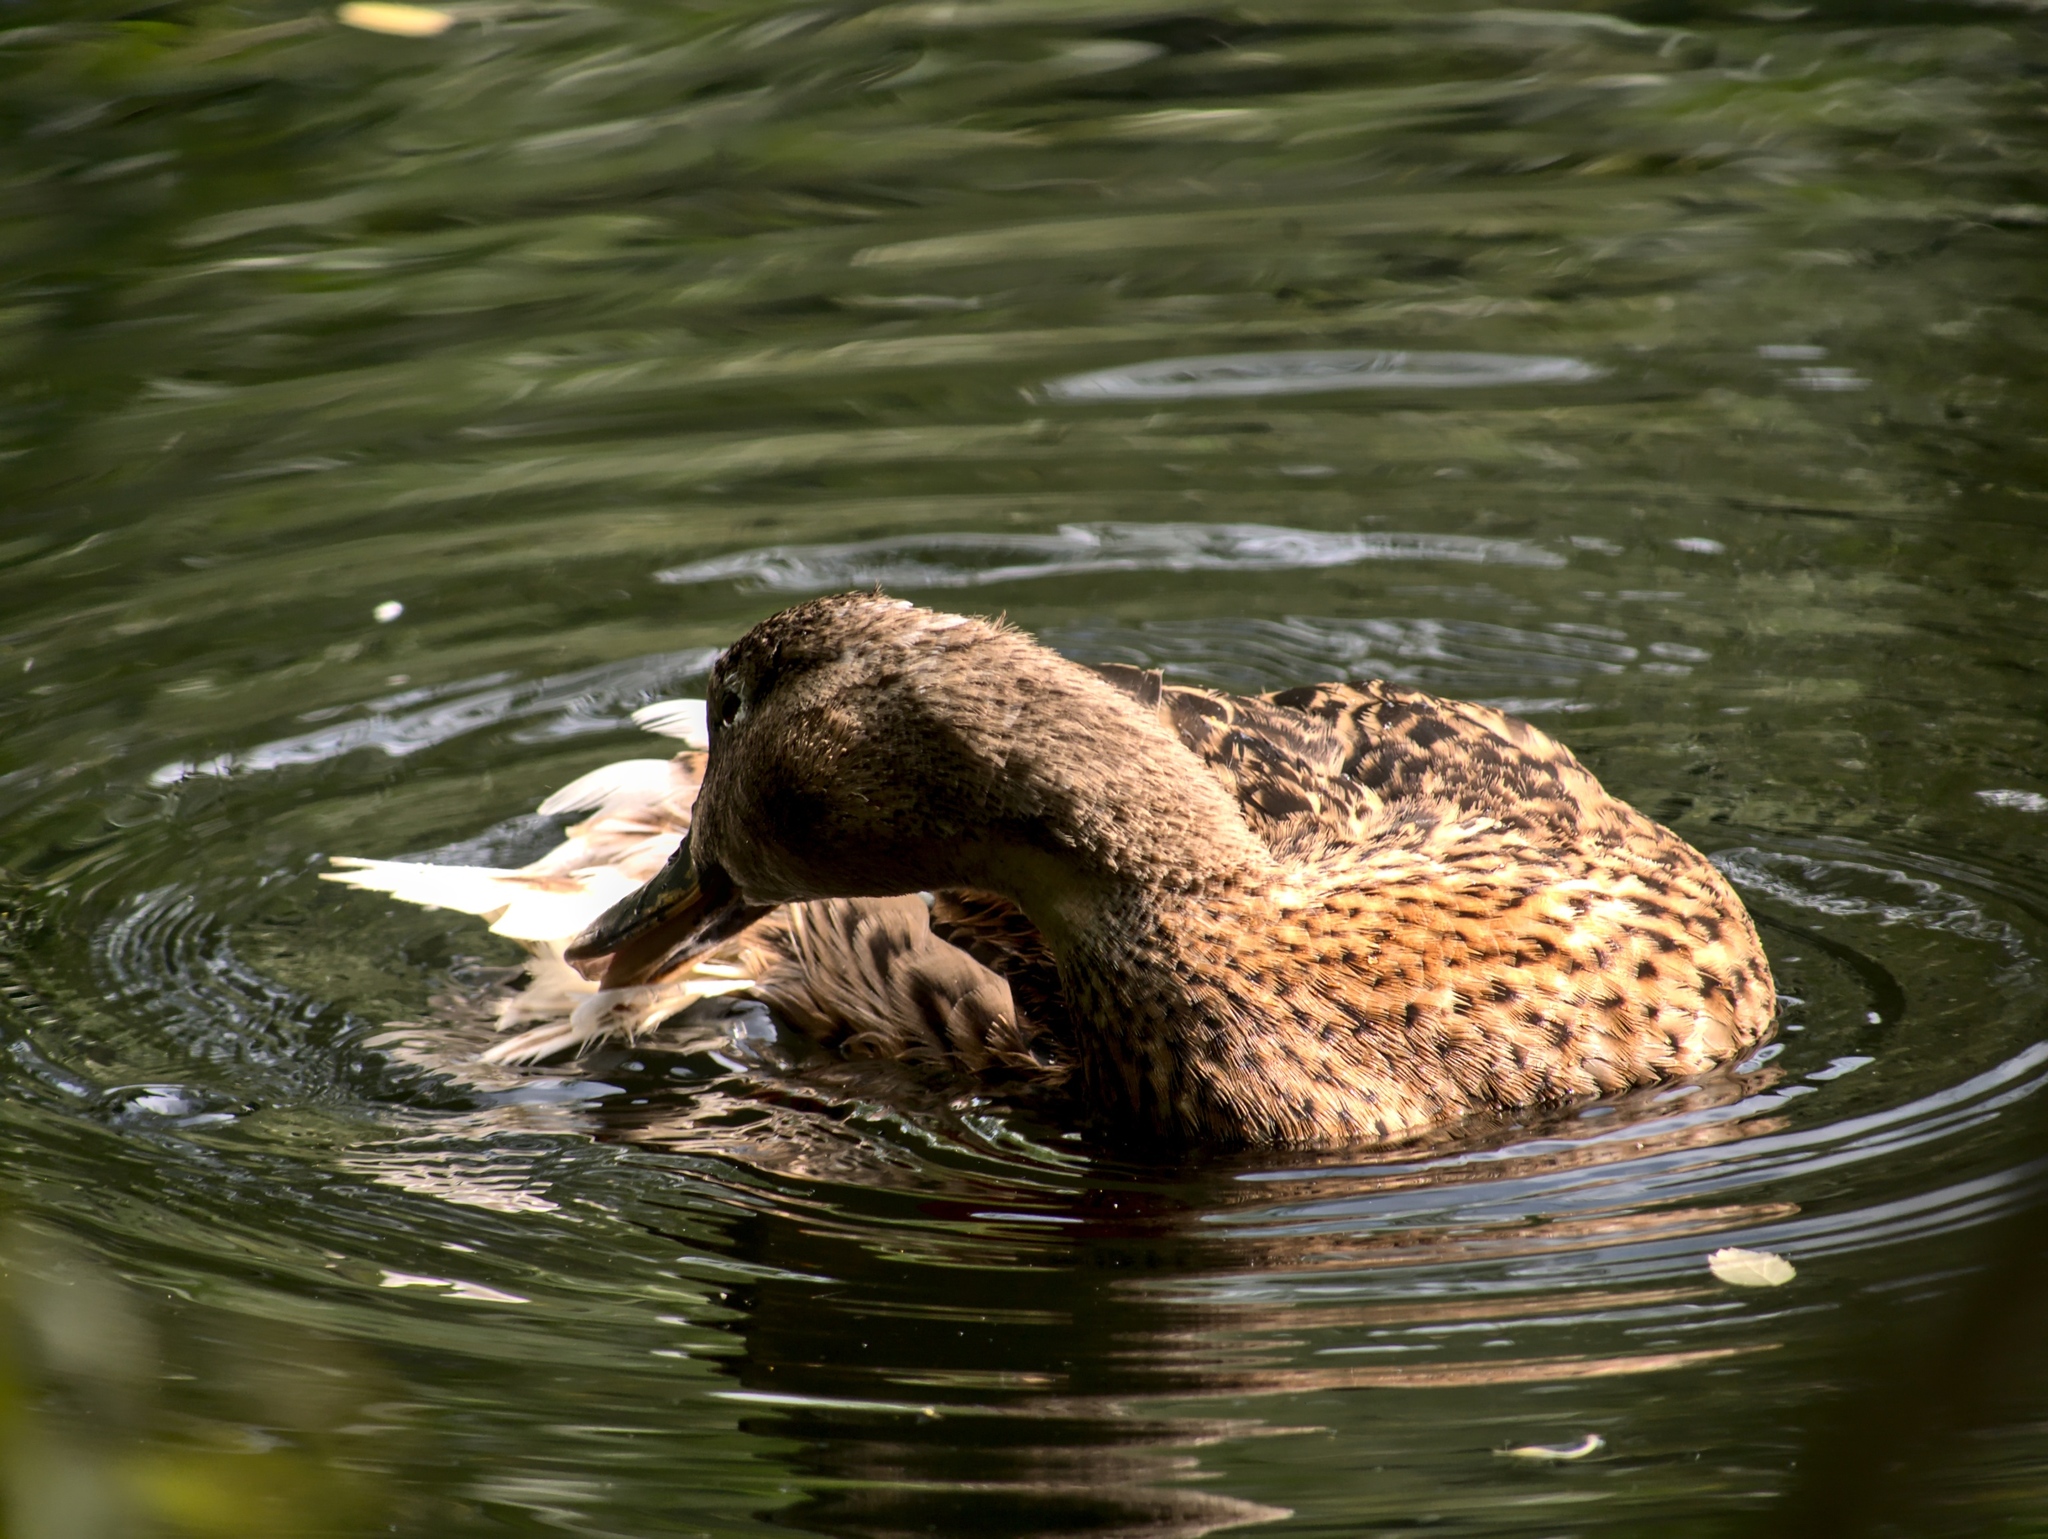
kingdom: Animalia
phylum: Chordata
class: Aves
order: Anseriformes
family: Anatidae
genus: Anas
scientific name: Anas platyrhynchos
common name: Mallard
